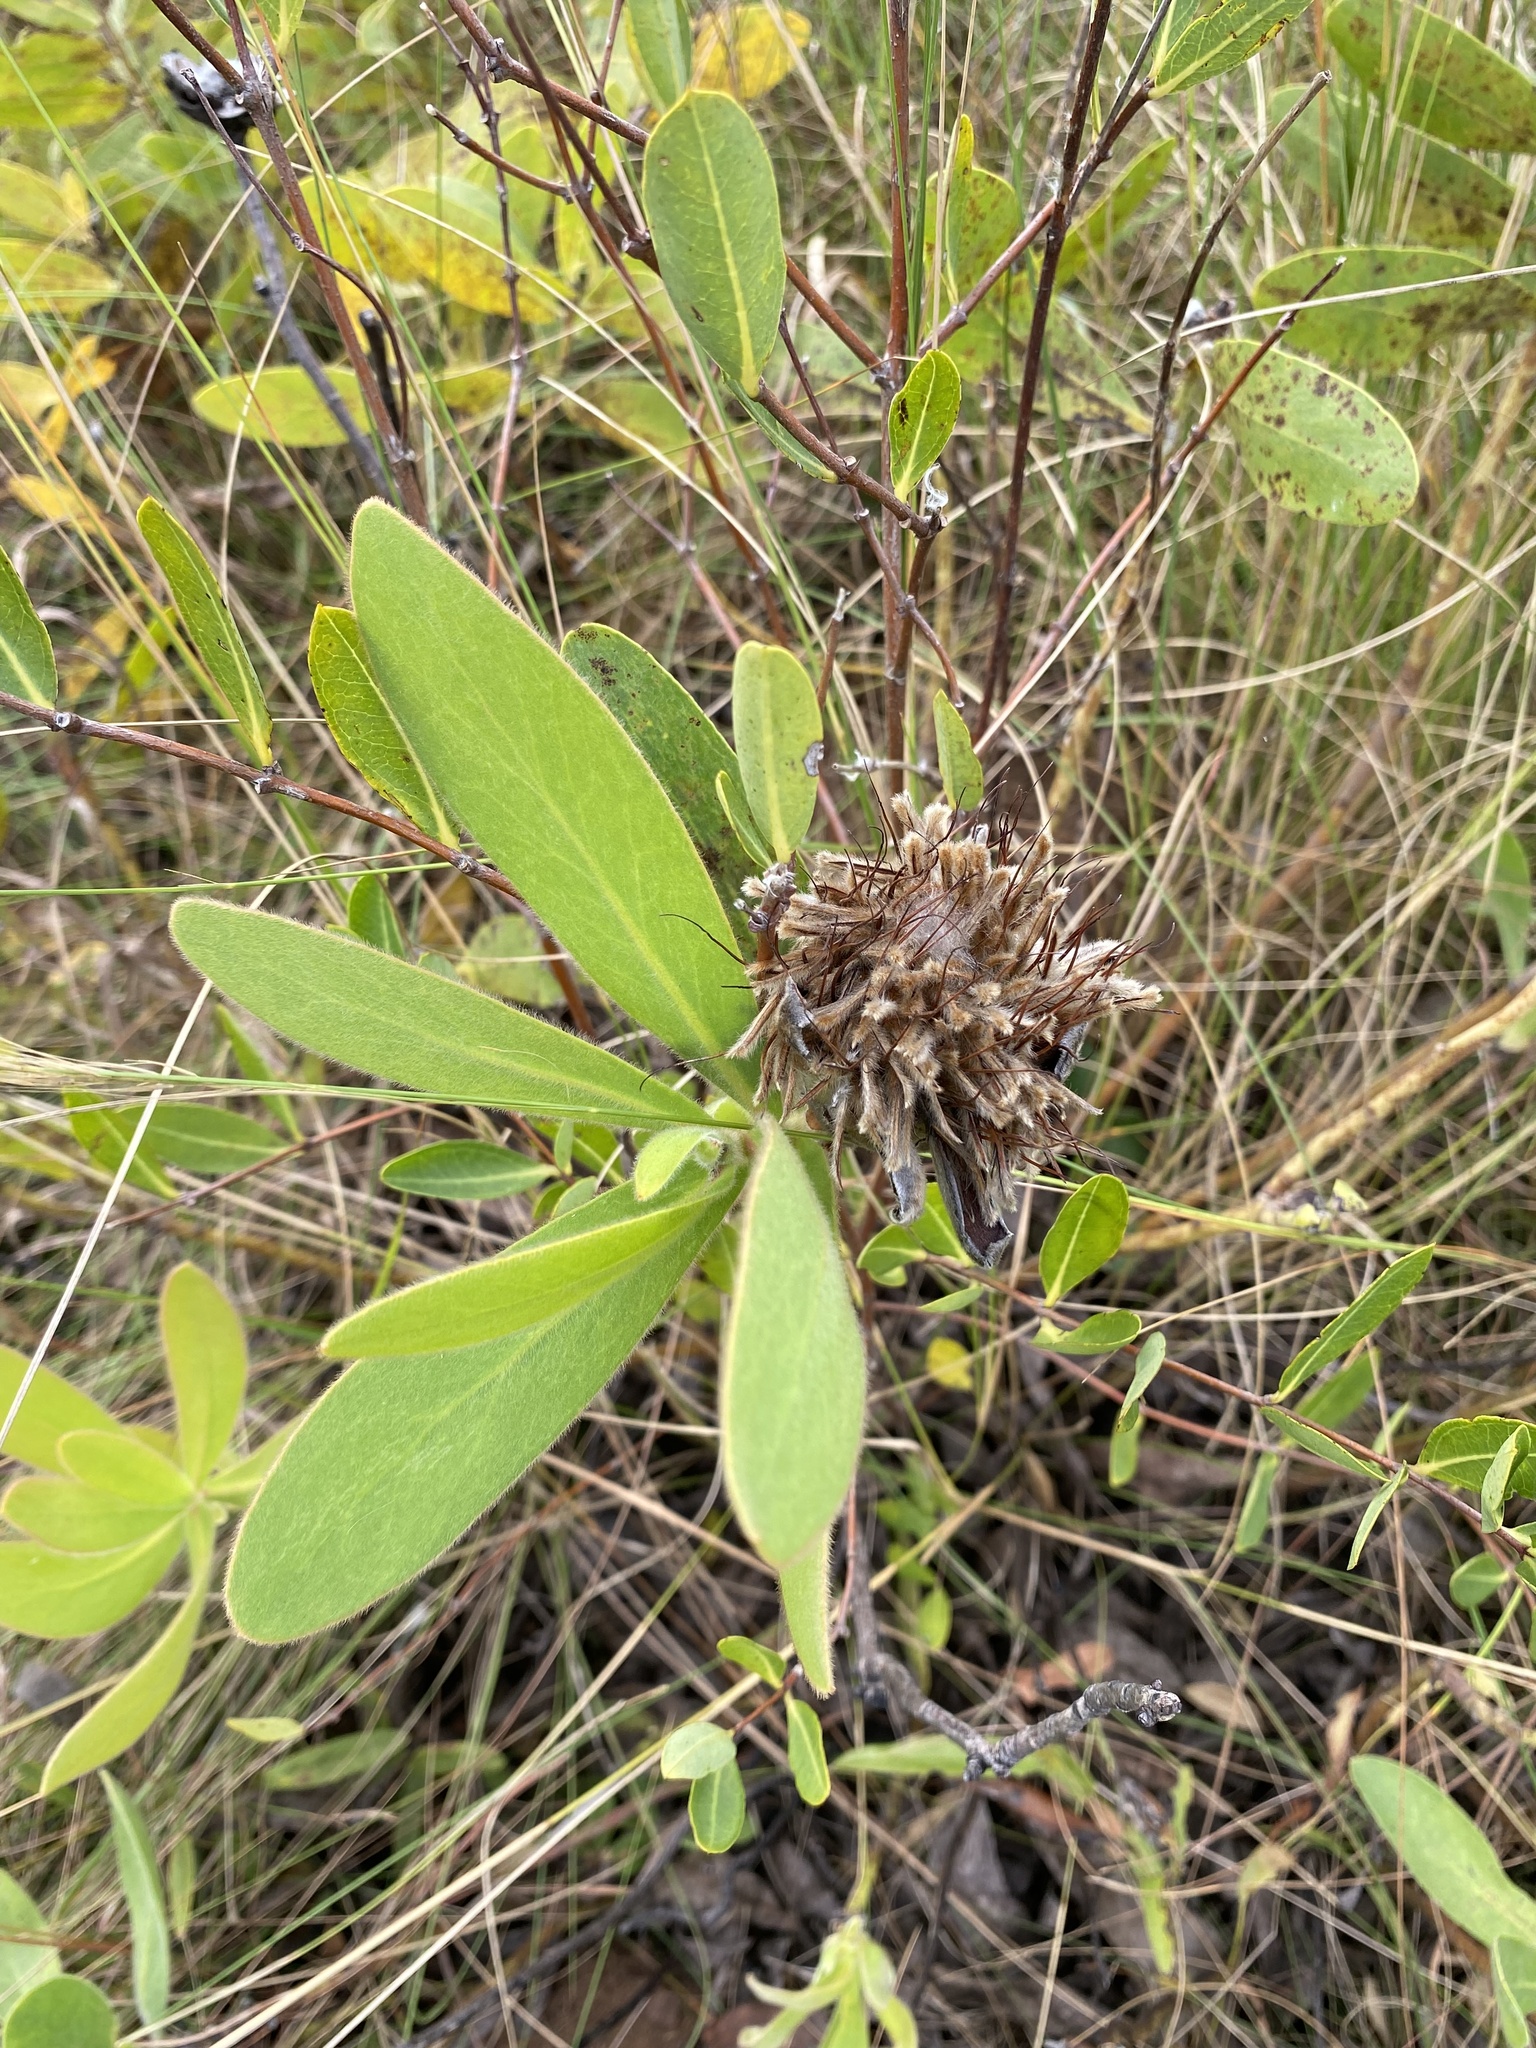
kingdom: Plantae
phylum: Tracheophyta
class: Magnoliopsida
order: Proteales
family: Proteaceae
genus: Protea
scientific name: Protea welwitschii
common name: Cluster-head protea
